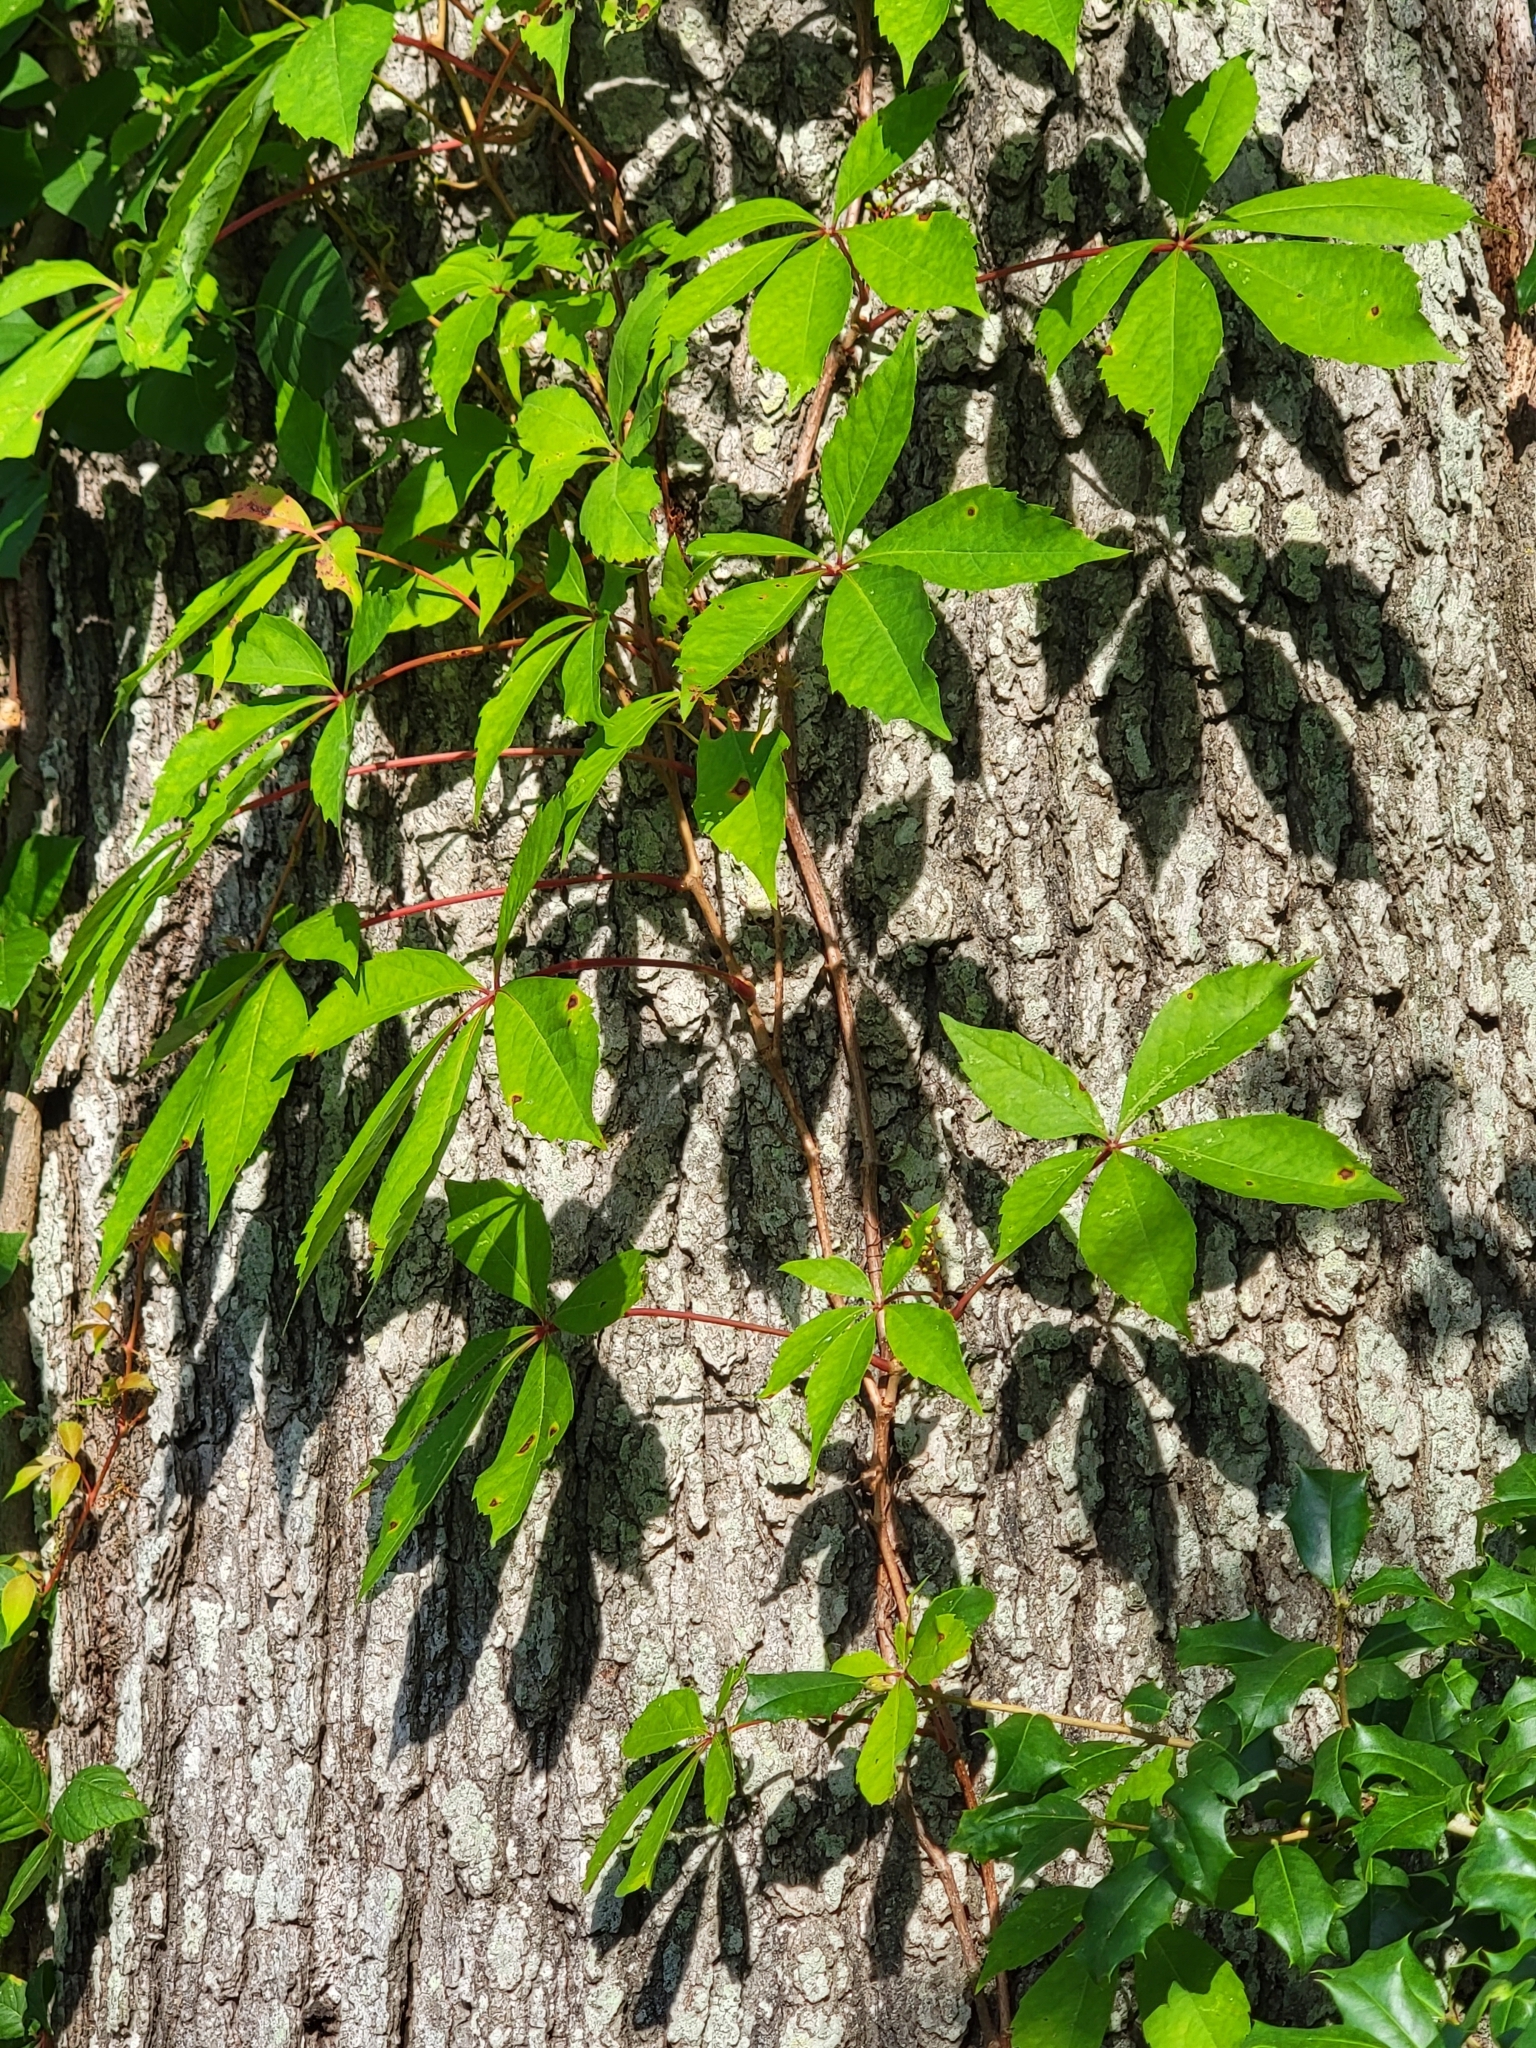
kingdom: Plantae
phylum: Tracheophyta
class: Magnoliopsida
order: Vitales
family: Vitaceae
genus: Parthenocissus
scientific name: Parthenocissus quinquefolia
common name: Virginia-creeper
